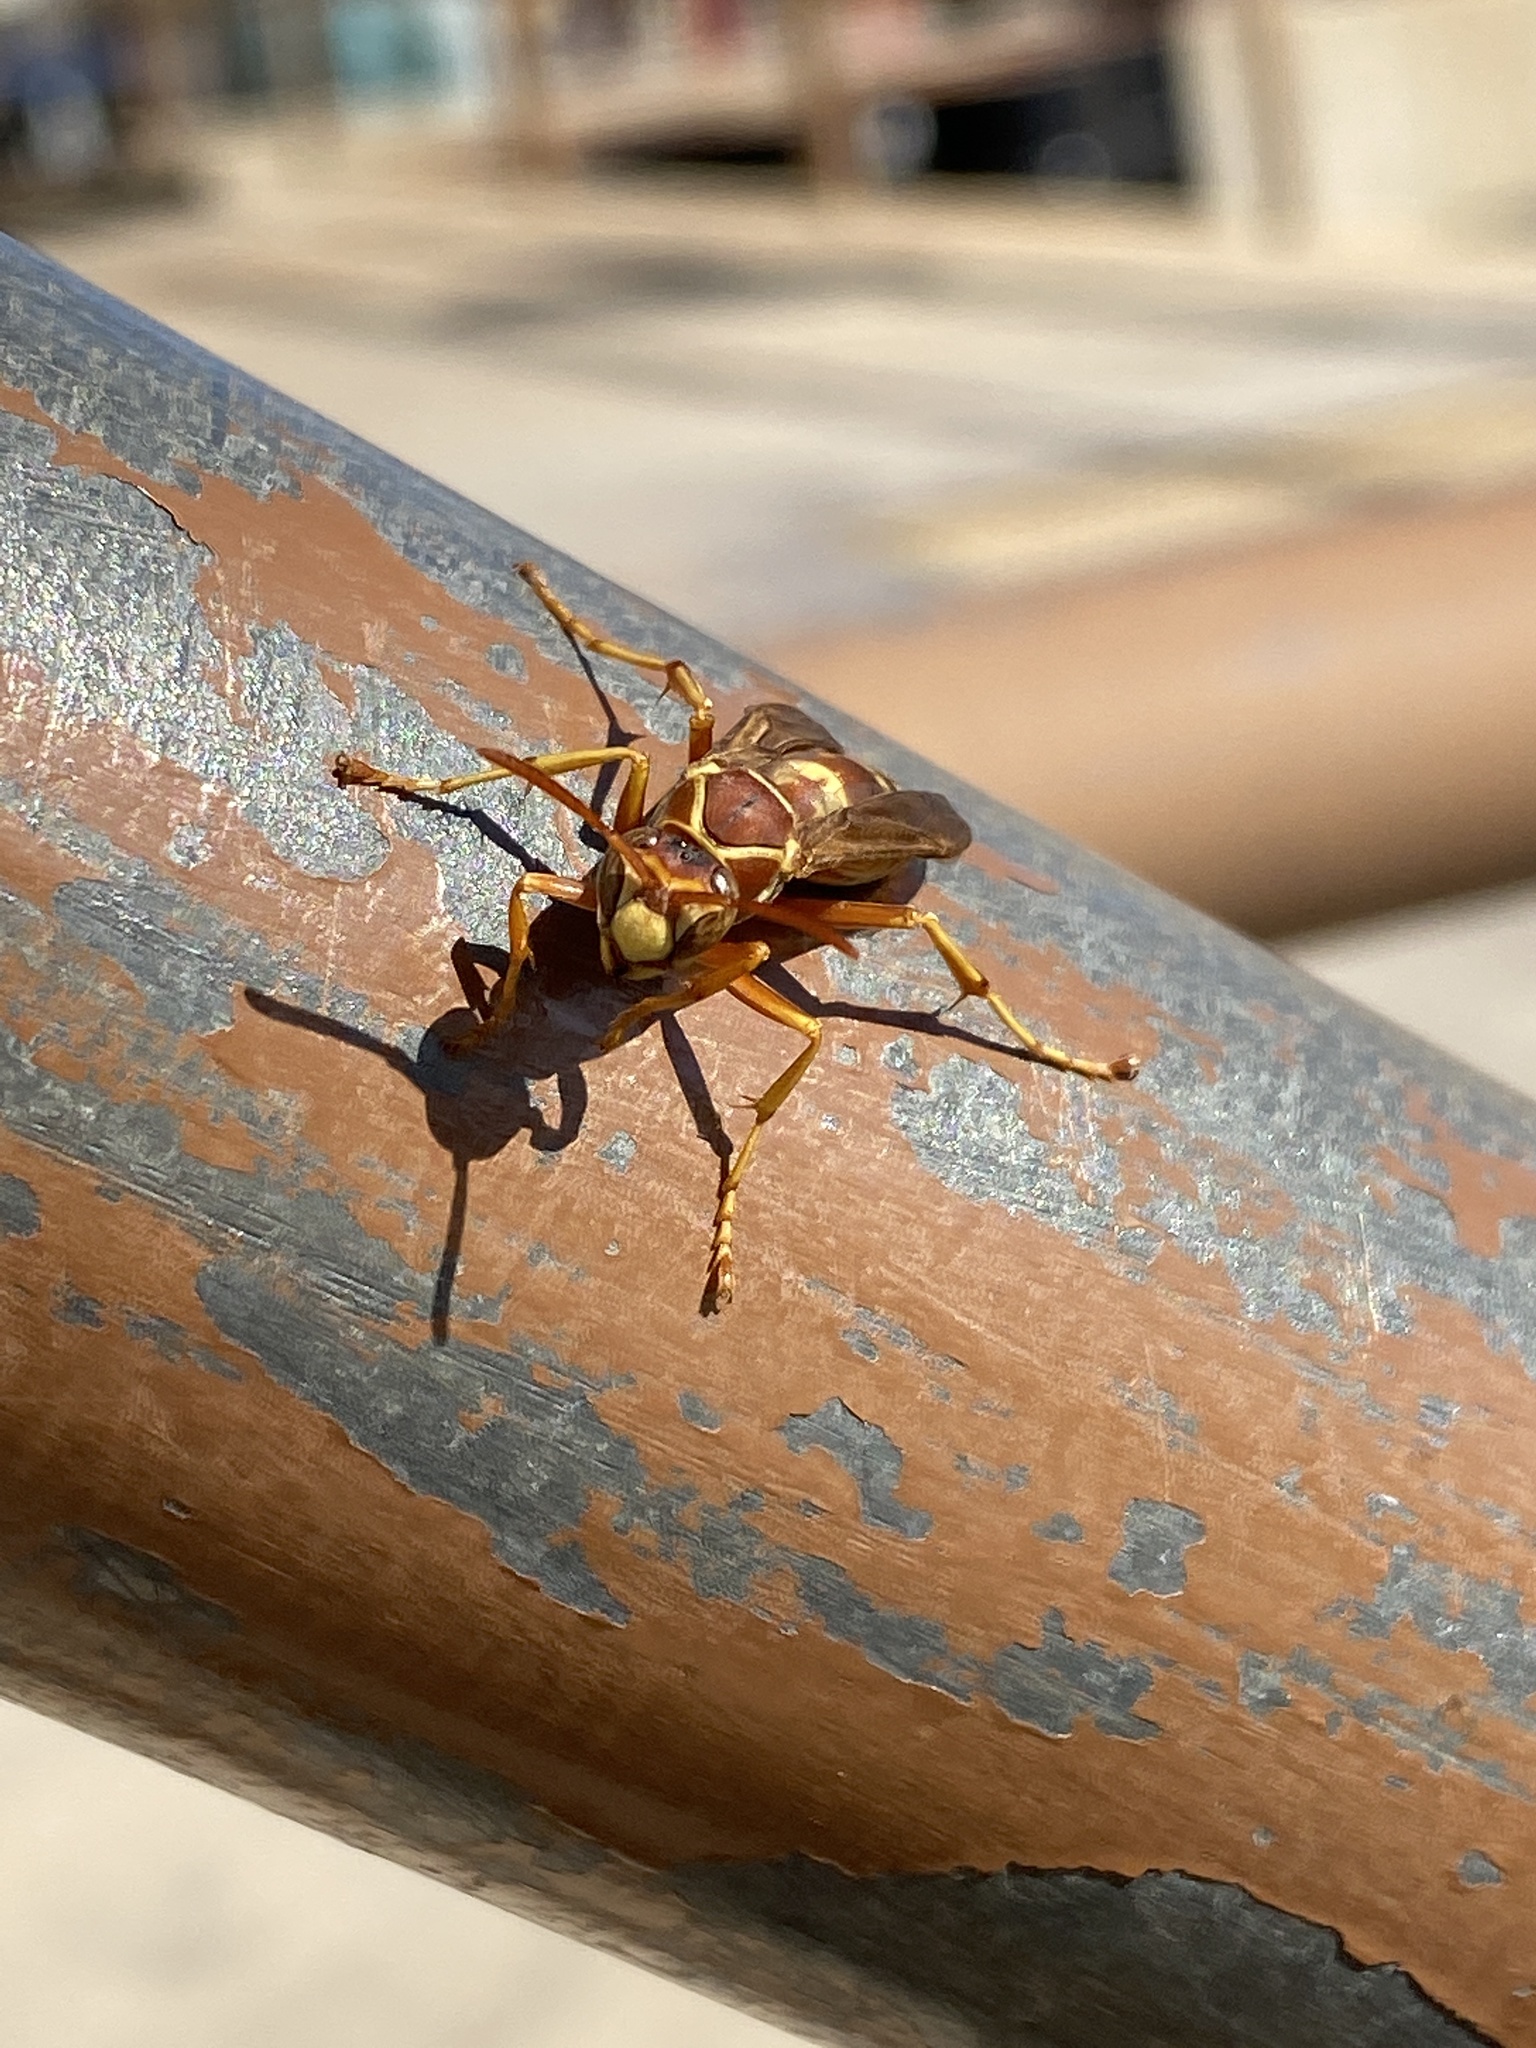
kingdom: Animalia
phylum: Arthropoda
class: Insecta
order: Hymenoptera
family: Eumenidae
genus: Polistes
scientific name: Polistes aurifer
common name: Paper wasp
